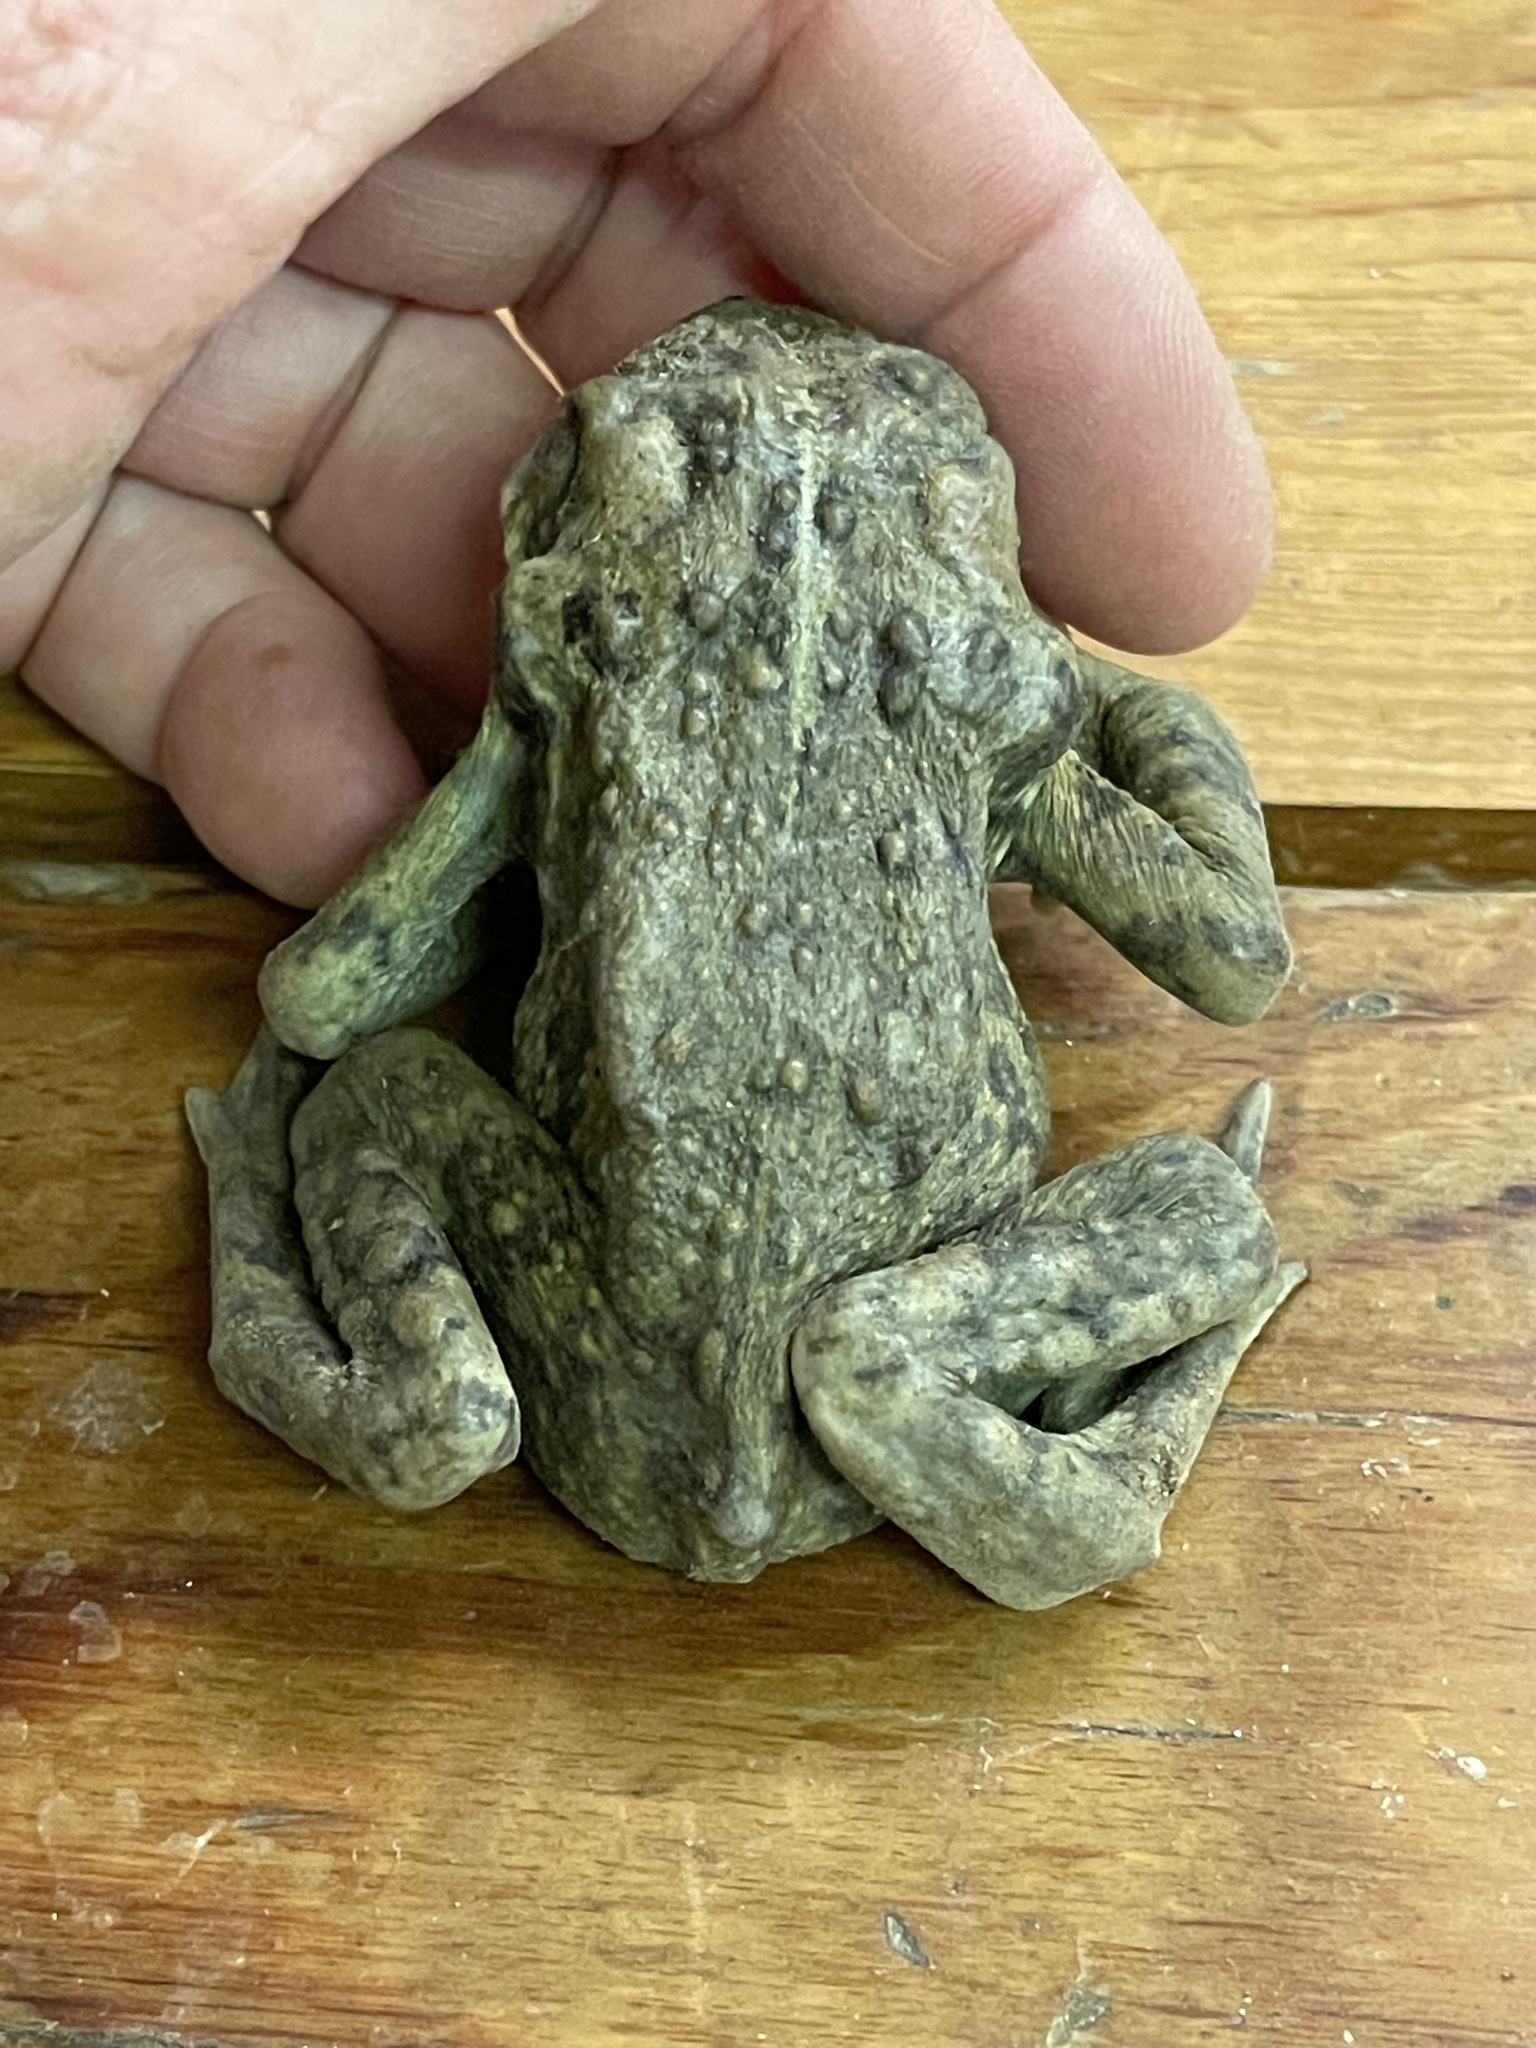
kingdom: Animalia
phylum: Chordata
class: Amphibia
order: Anura
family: Bufonidae
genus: Anaxyrus
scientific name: Anaxyrus boreas
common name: Western toad
